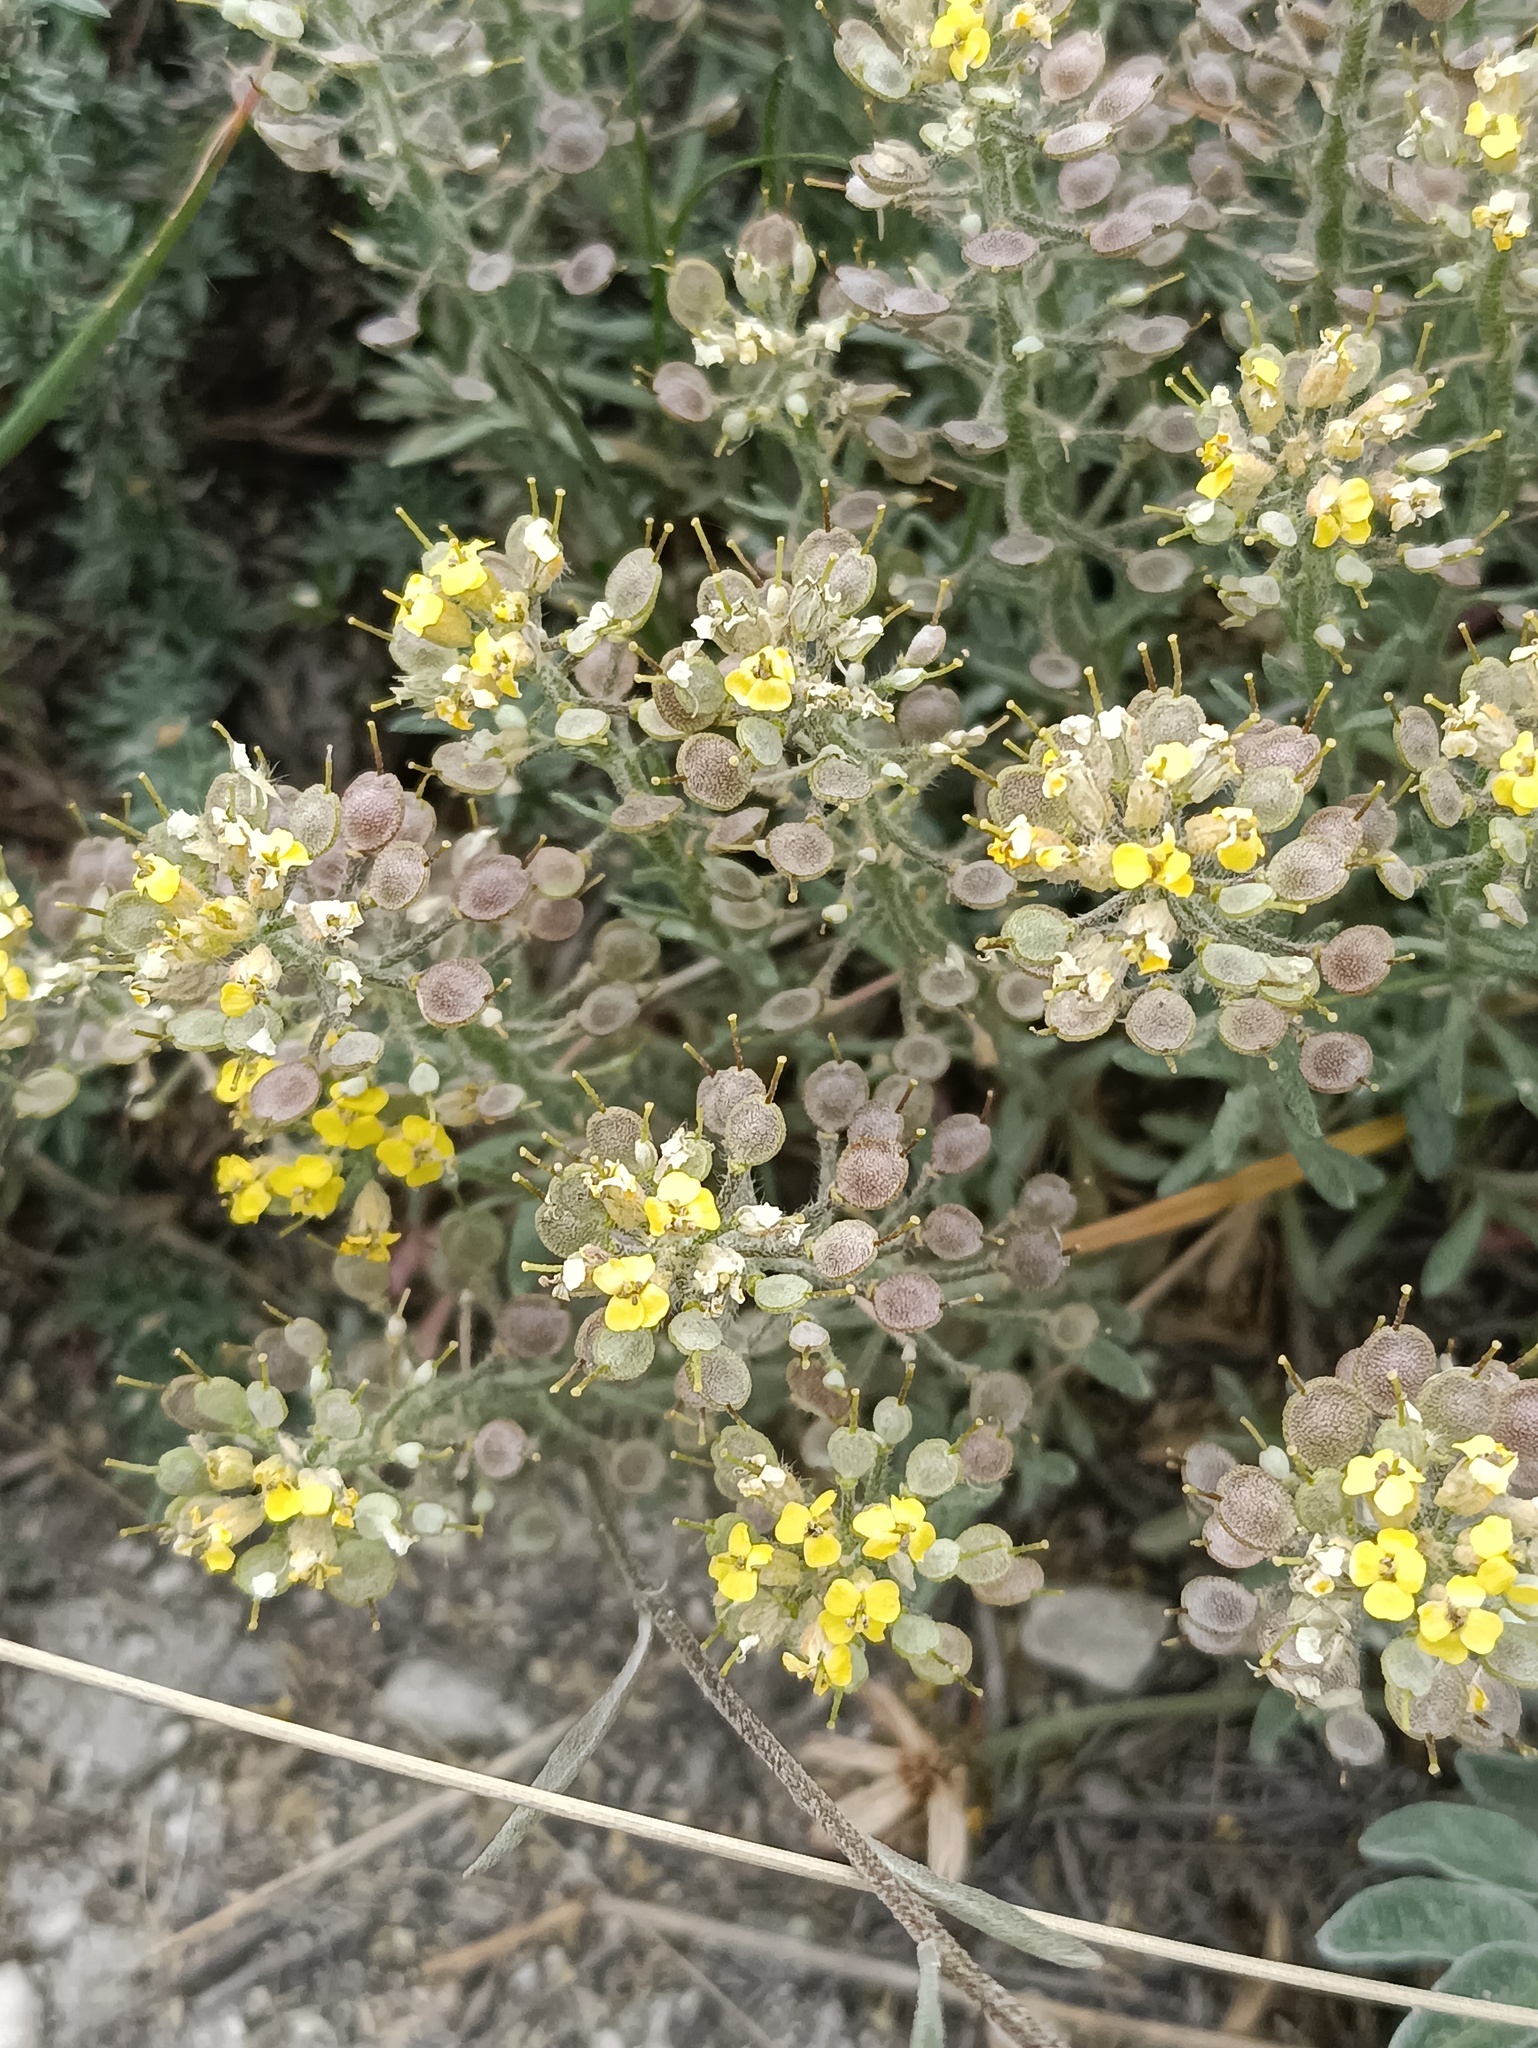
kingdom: Plantae
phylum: Tracheophyta
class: Magnoliopsida
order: Brassicales
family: Brassicaceae
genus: Alyssum
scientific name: Alyssum lenense
